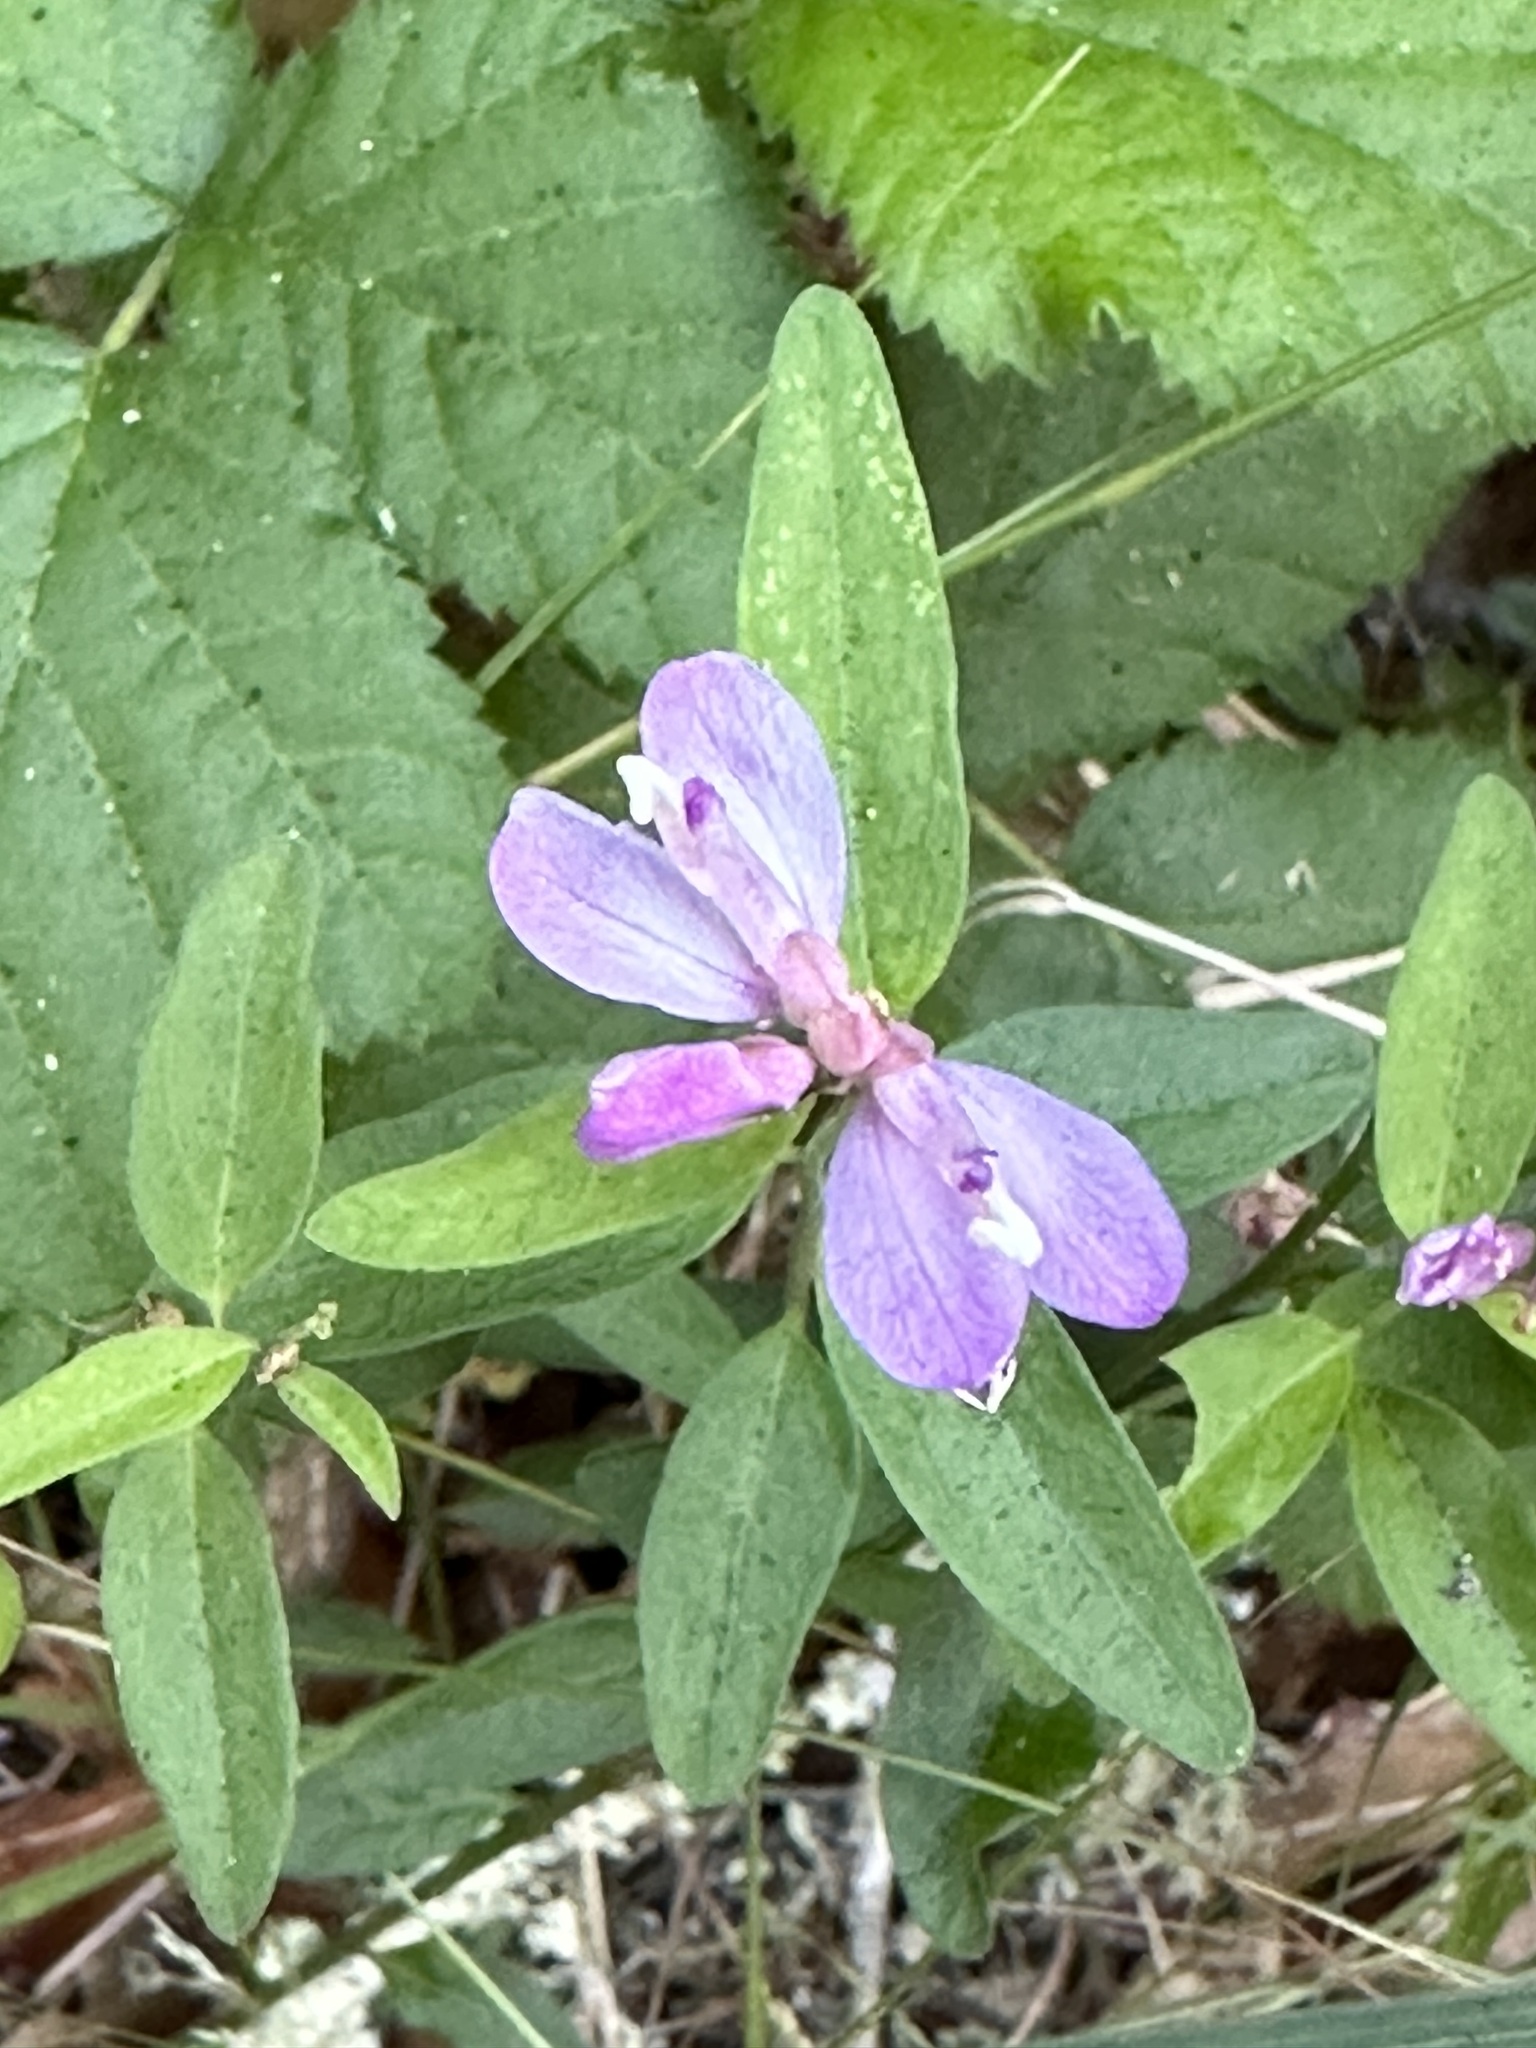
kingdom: Plantae
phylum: Tracheophyta
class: Magnoliopsida
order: Fabales
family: Polygalaceae
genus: Rhinotropis
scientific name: Rhinotropis californica
